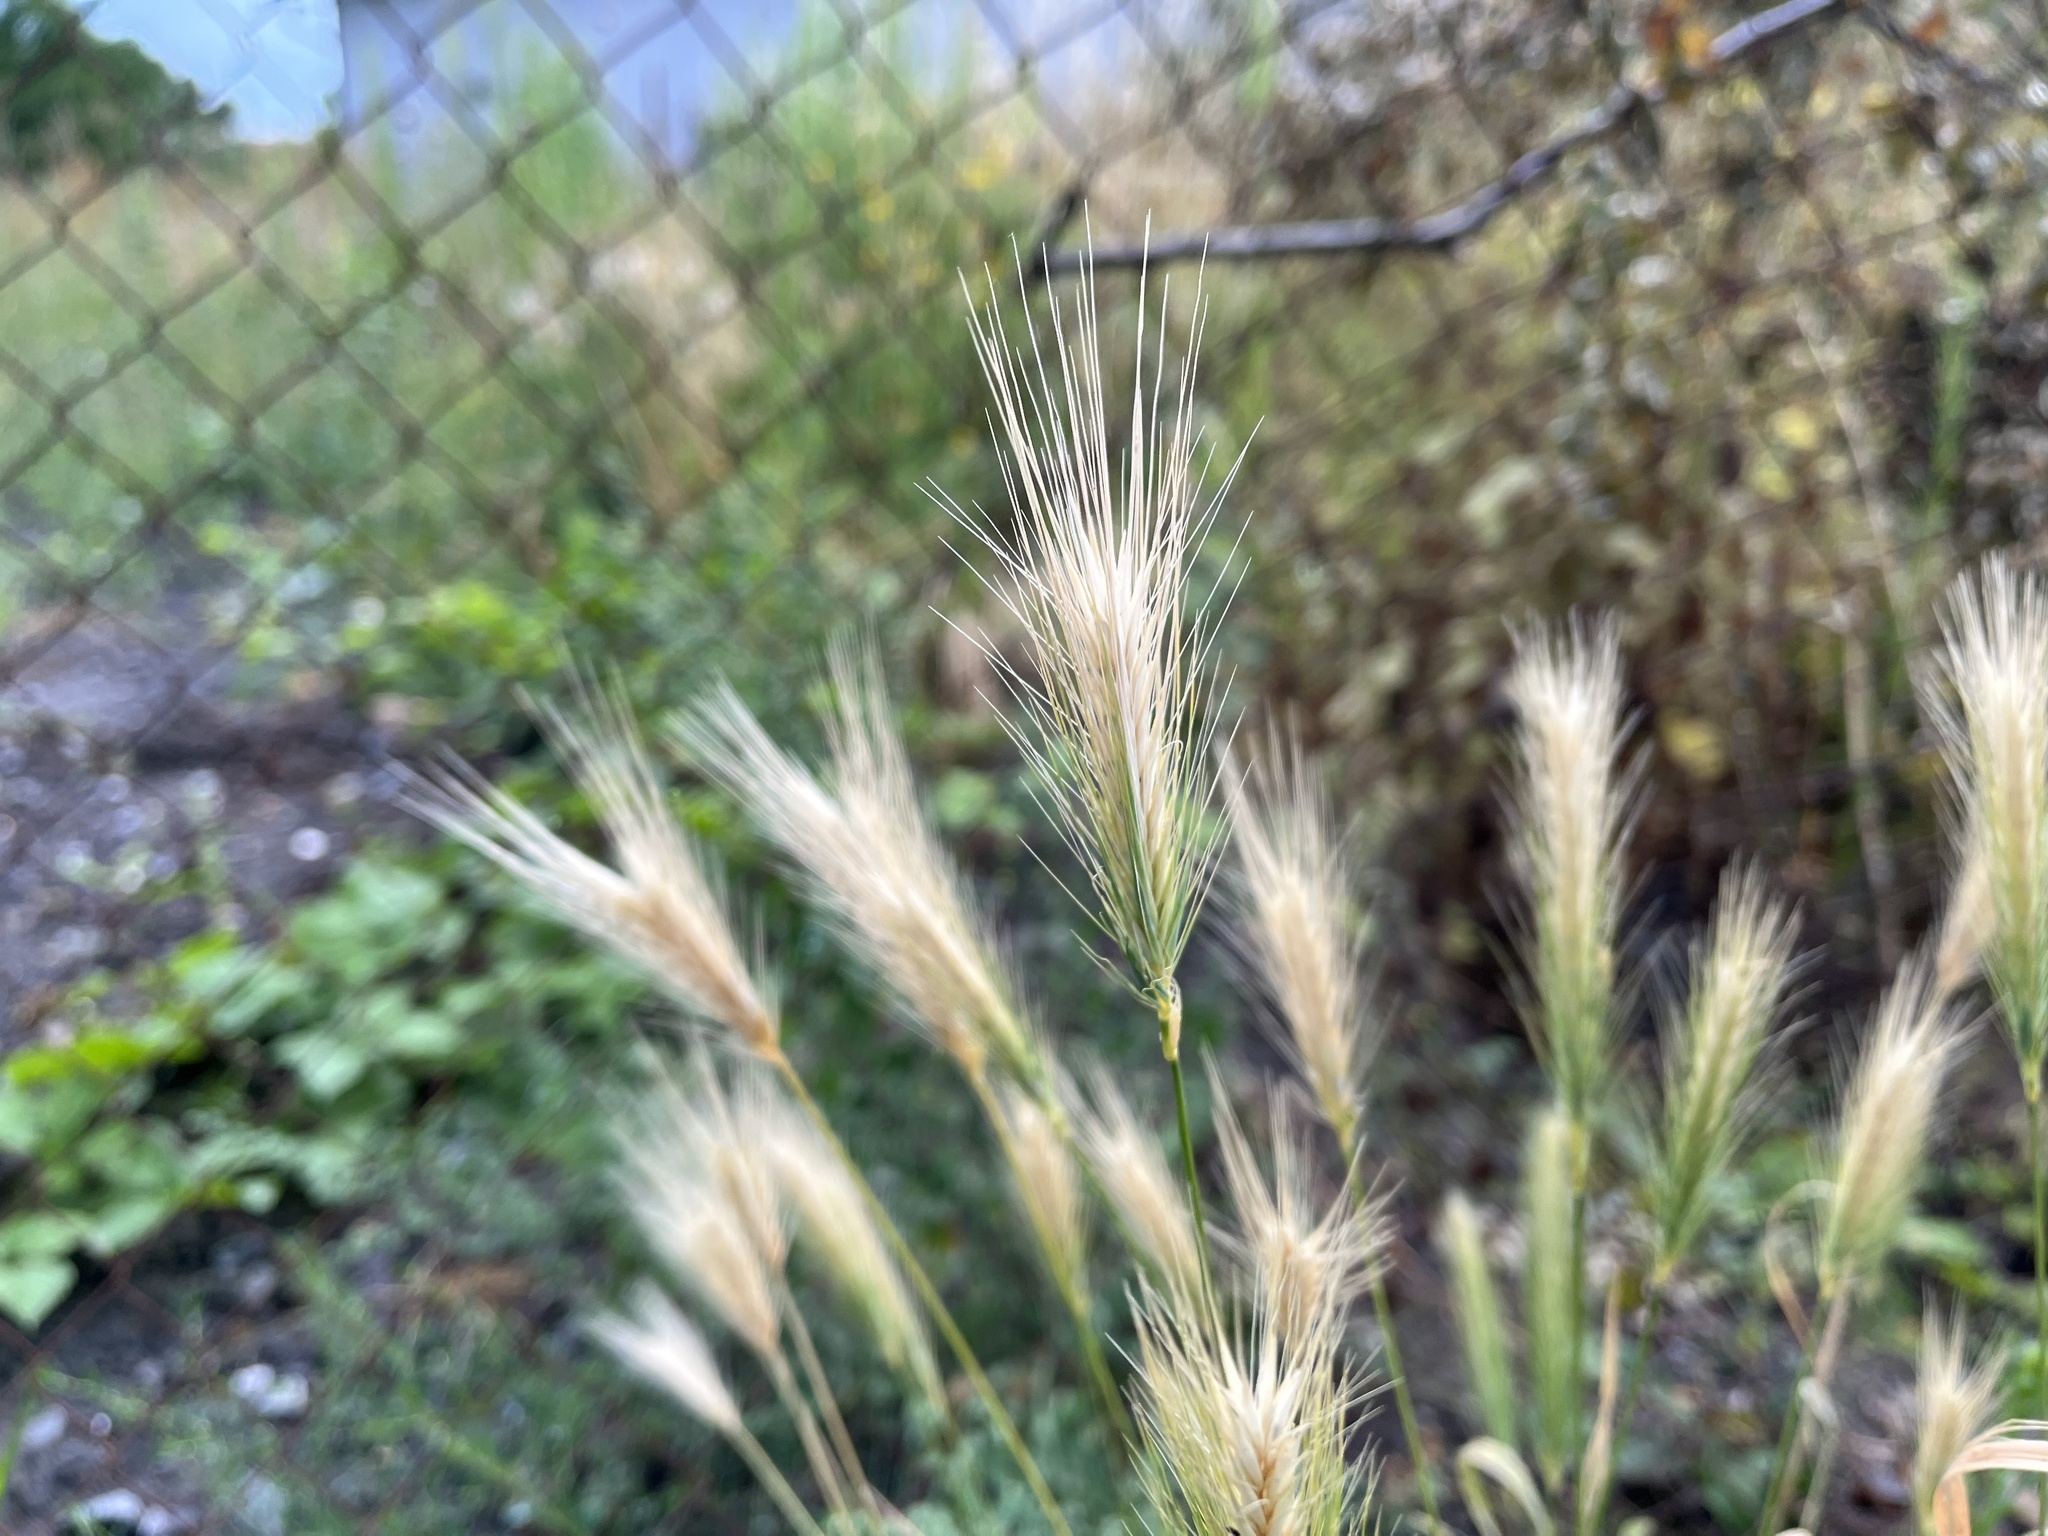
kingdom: Plantae
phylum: Tracheophyta
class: Liliopsida
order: Poales
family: Poaceae
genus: Hordeum
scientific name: Hordeum murinum
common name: Wall barley
